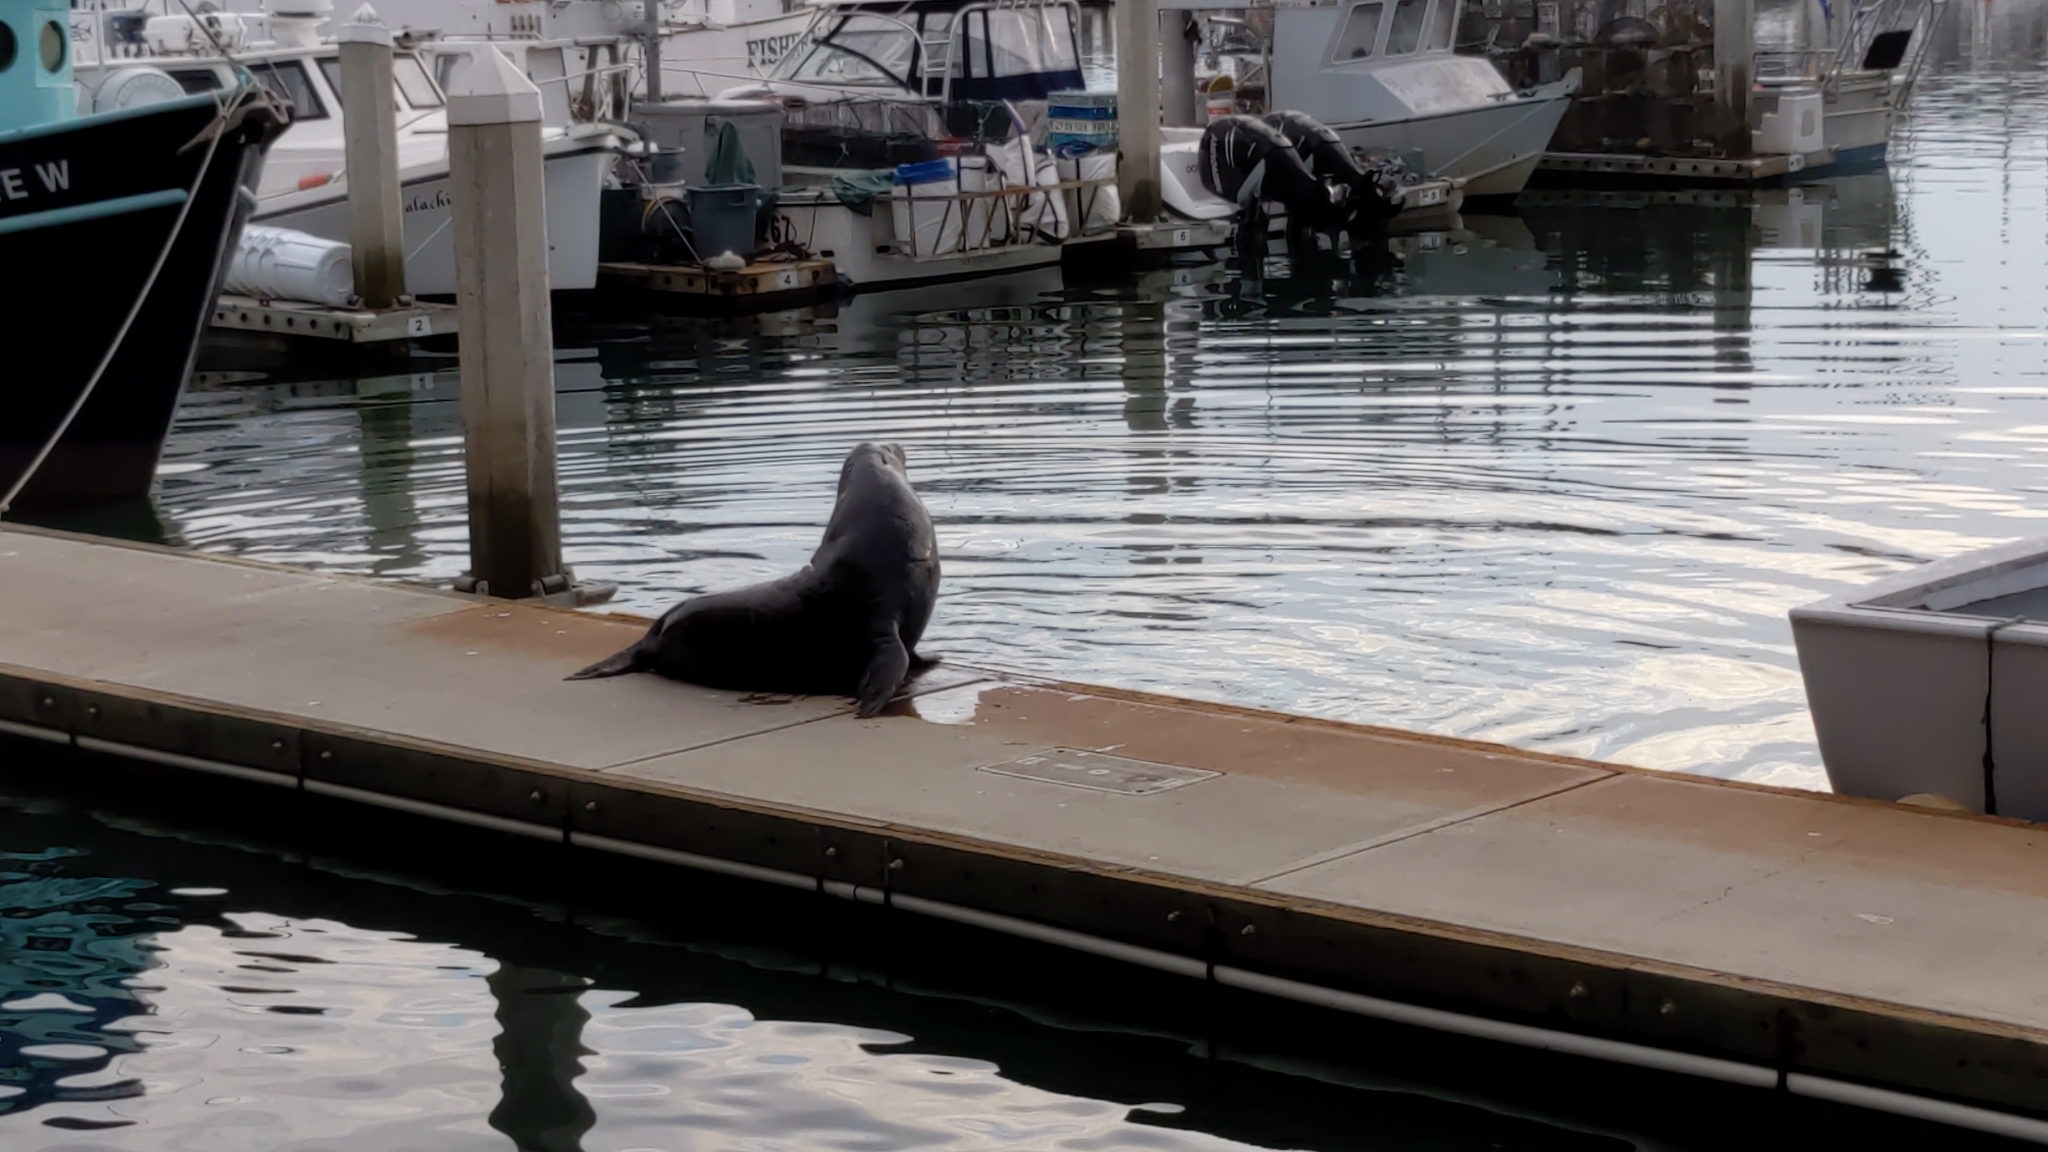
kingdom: Animalia
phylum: Chordata
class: Mammalia
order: Carnivora
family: Otariidae
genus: Zalophus
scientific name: Zalophus californianus
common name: California sea lion
